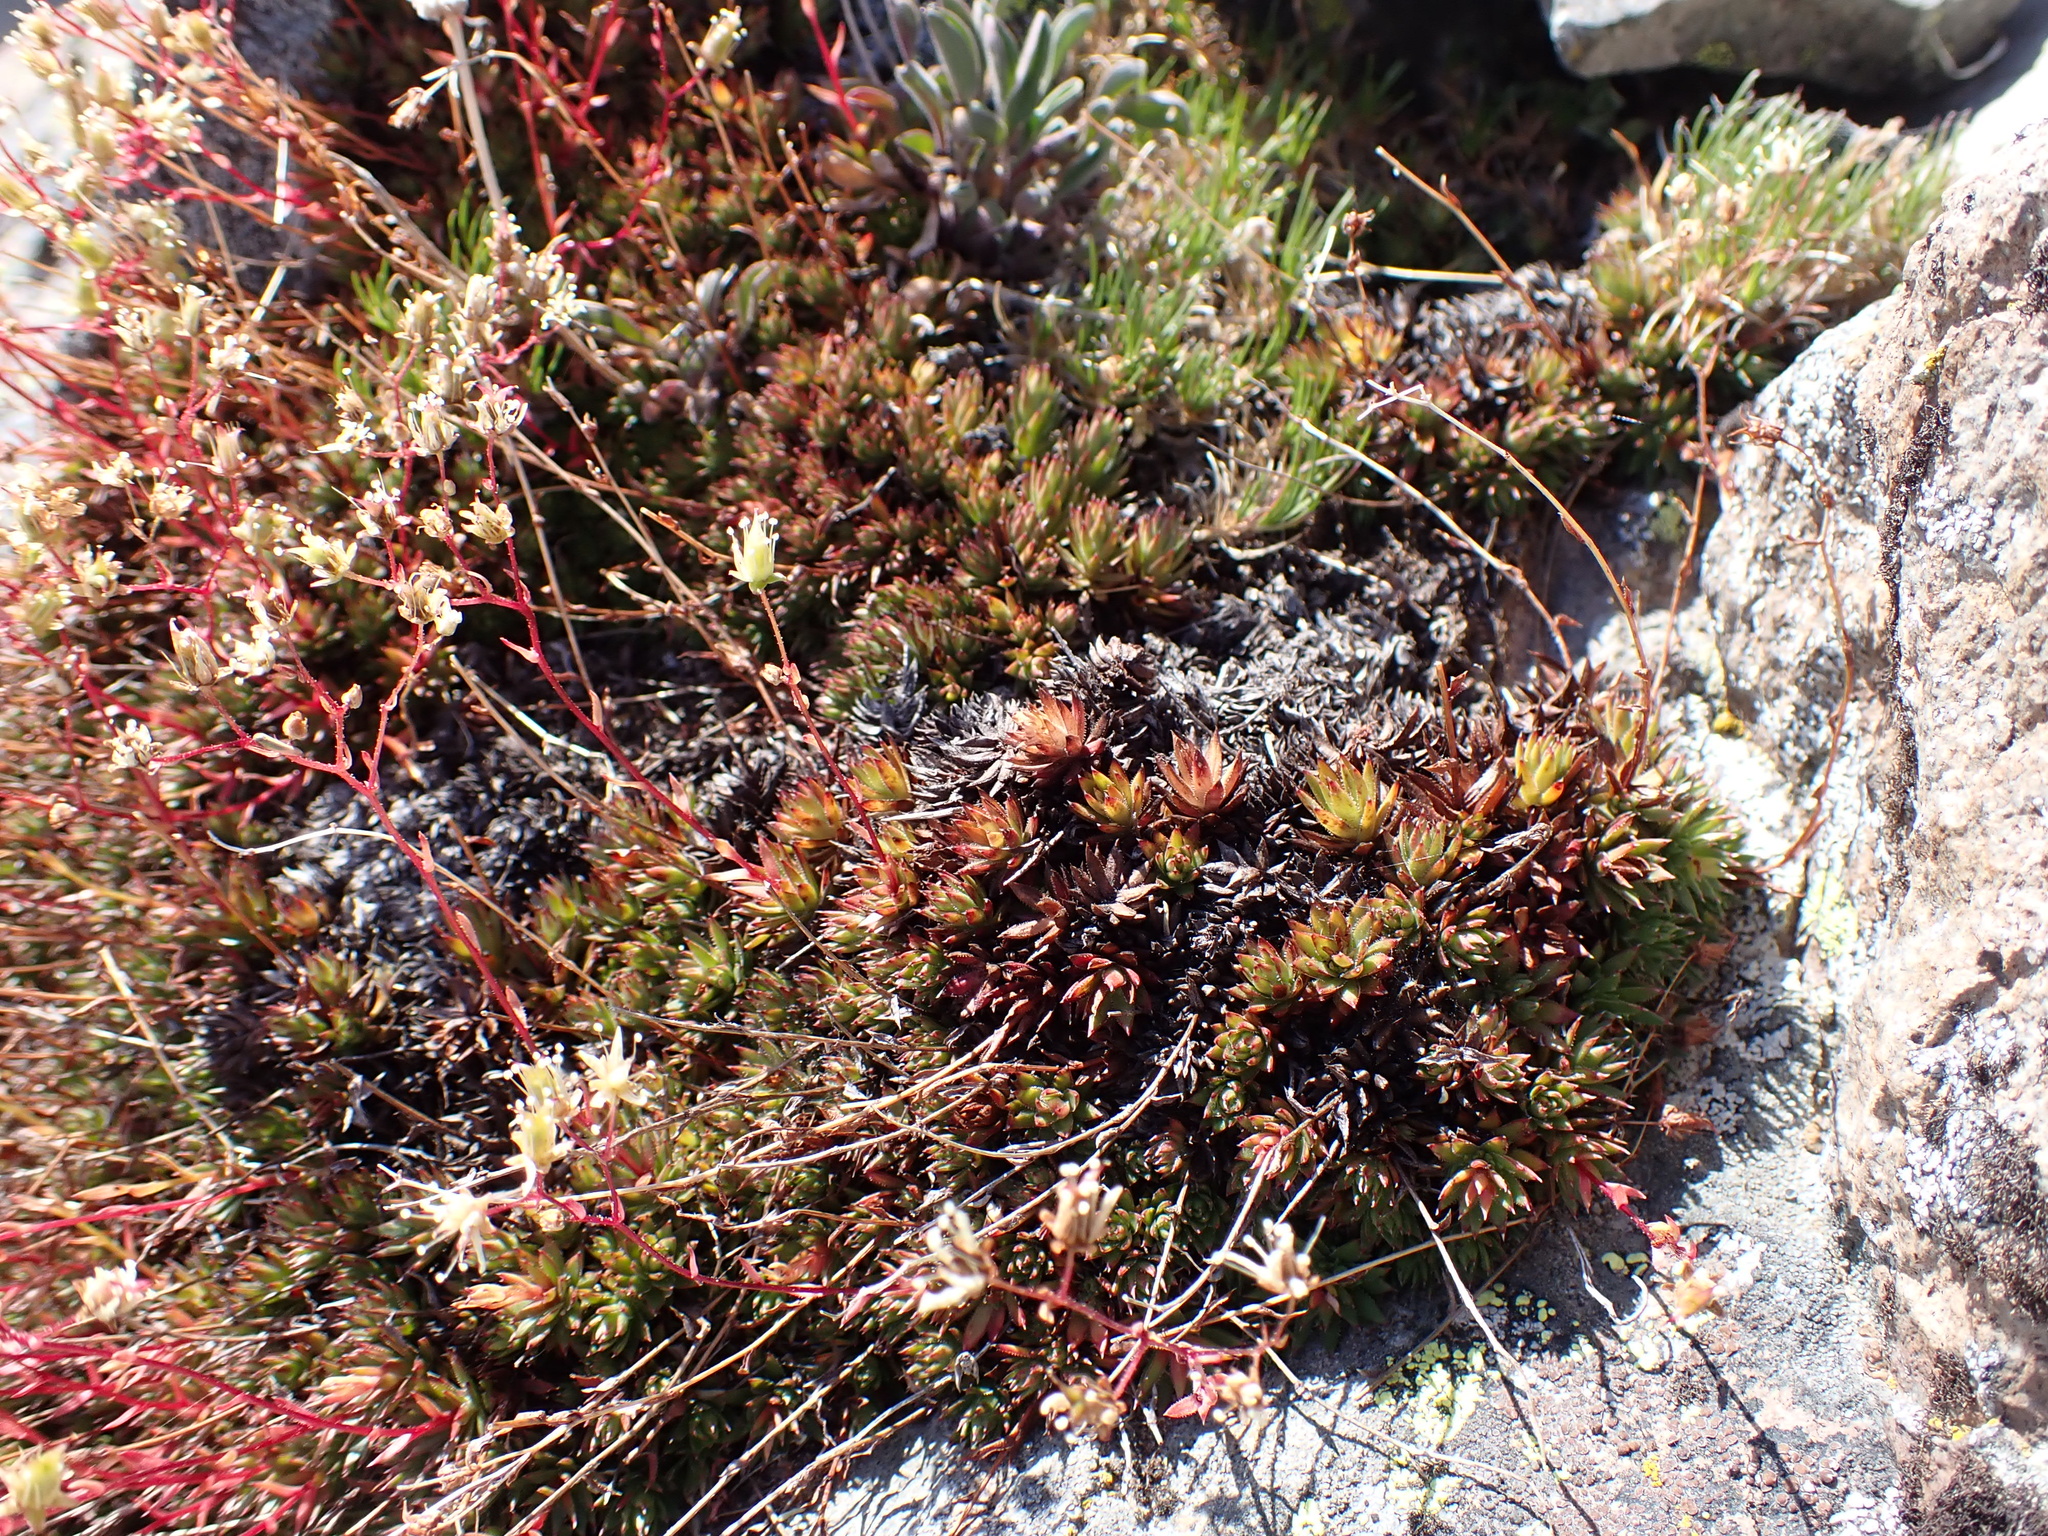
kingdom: Plantae
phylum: Tracheophyta
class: Magnoliopsida
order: Saxifragales
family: Saxifragaceae
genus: Saxifraga
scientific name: Saxifraga bronchialis
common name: Matted saxifrage
